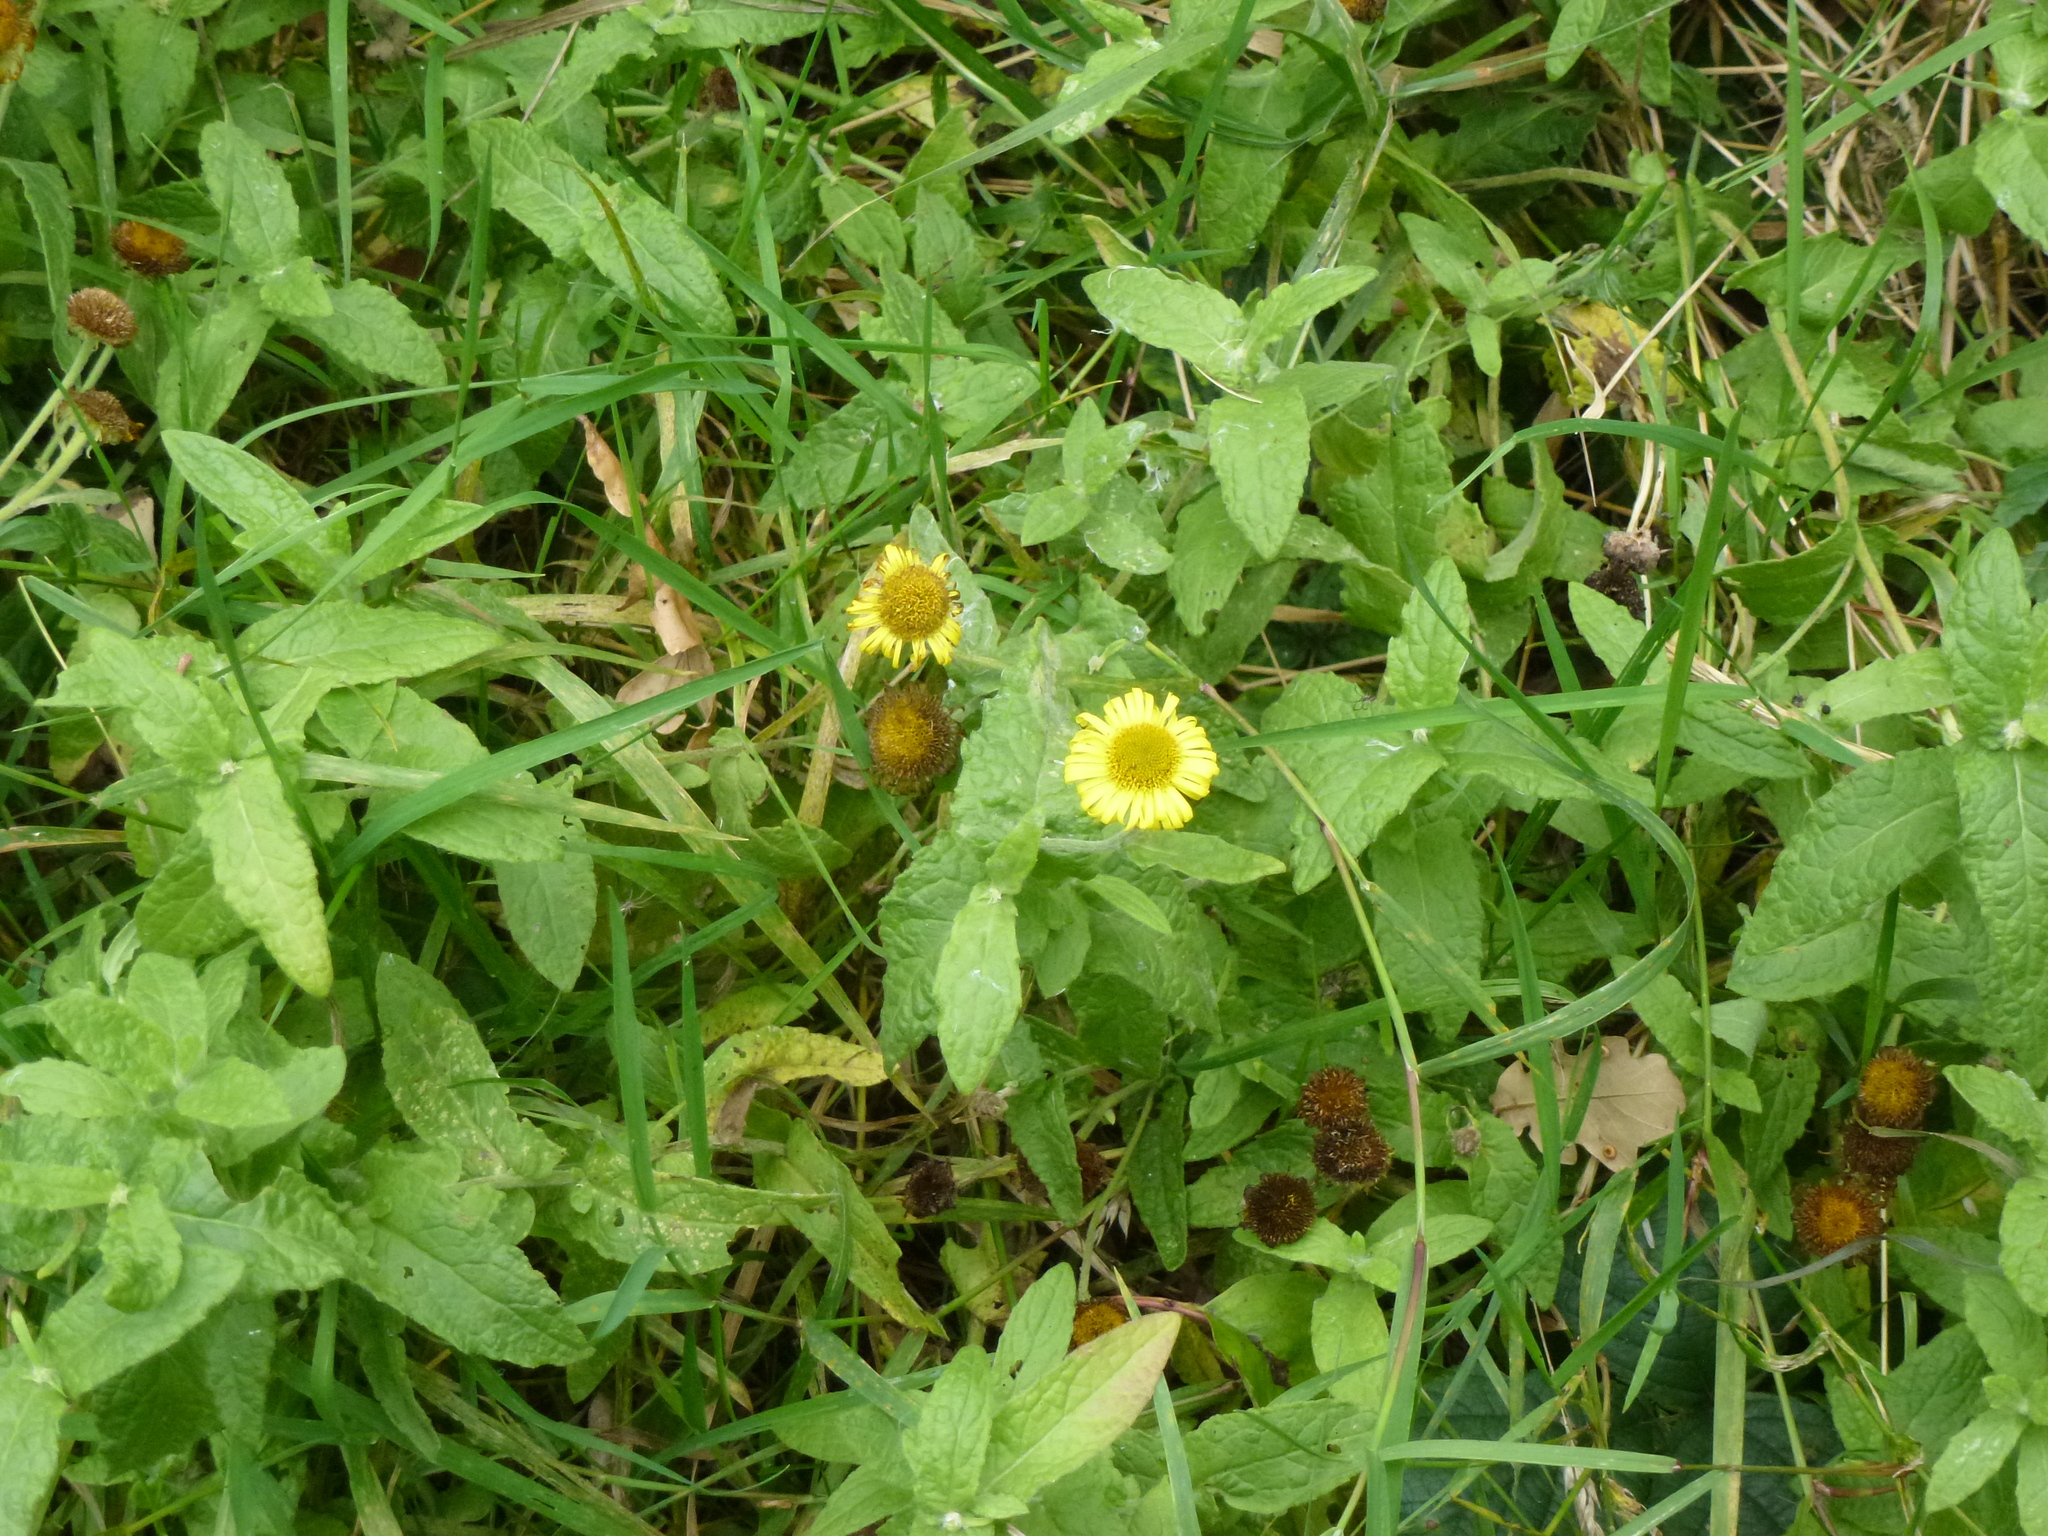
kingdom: Plantae
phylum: Tracheophyta
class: Magnoliopsida
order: Asterales
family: Asteraceae
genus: Pulicaria
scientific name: Pulicaria dysenterica
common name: Common fleabane
